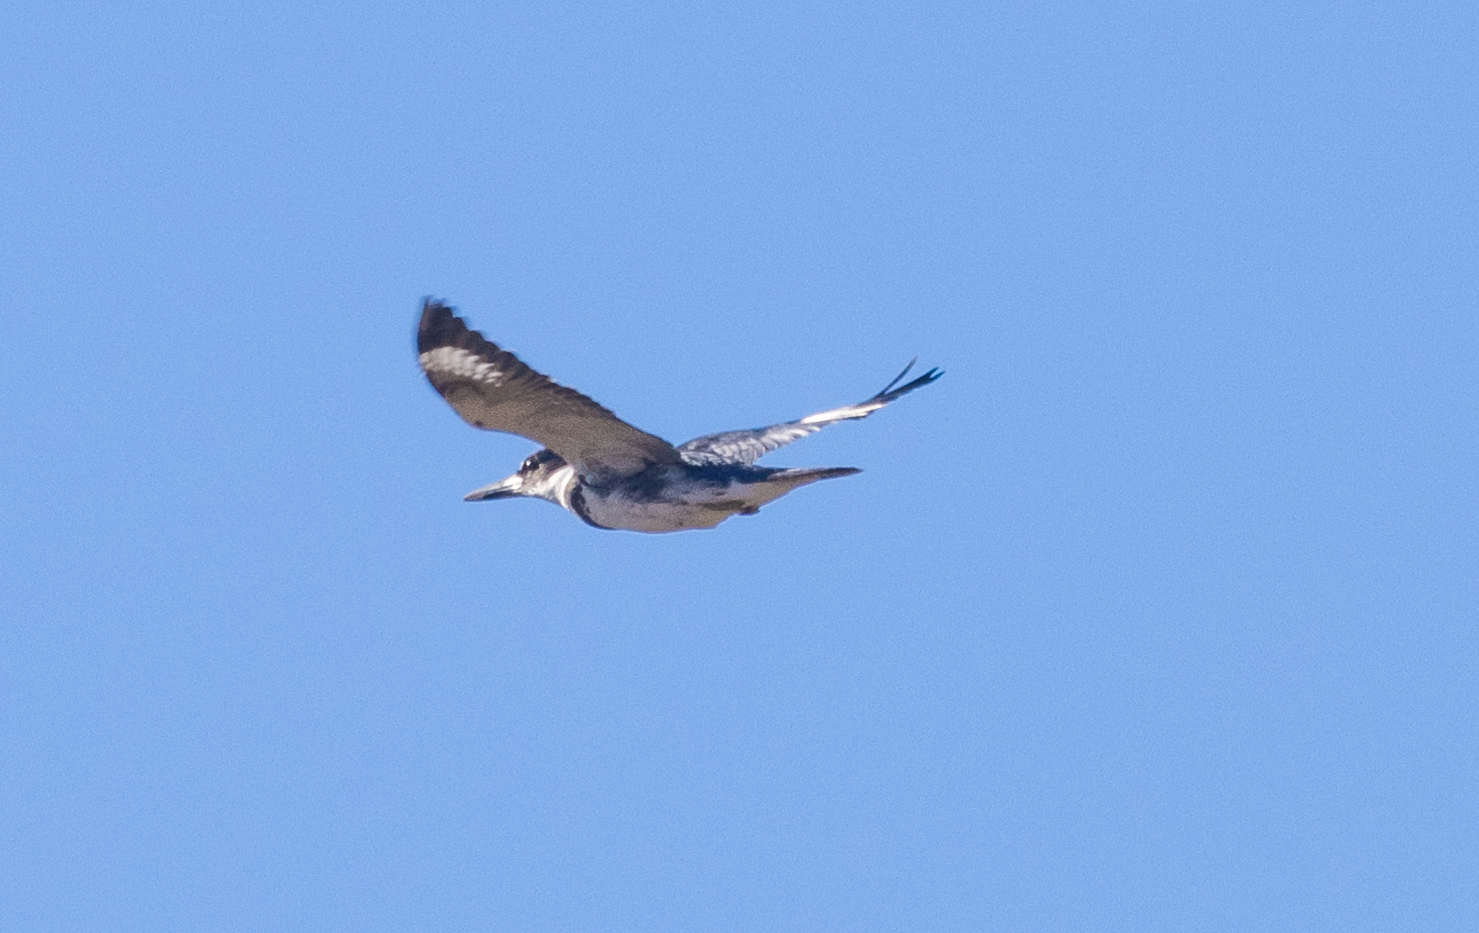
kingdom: Animalia
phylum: Chordata
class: Aves
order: Coraciiformes
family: Alcedinidae
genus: Megaceryle
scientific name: Megaceryle alcyon
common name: Belted kingfisher
